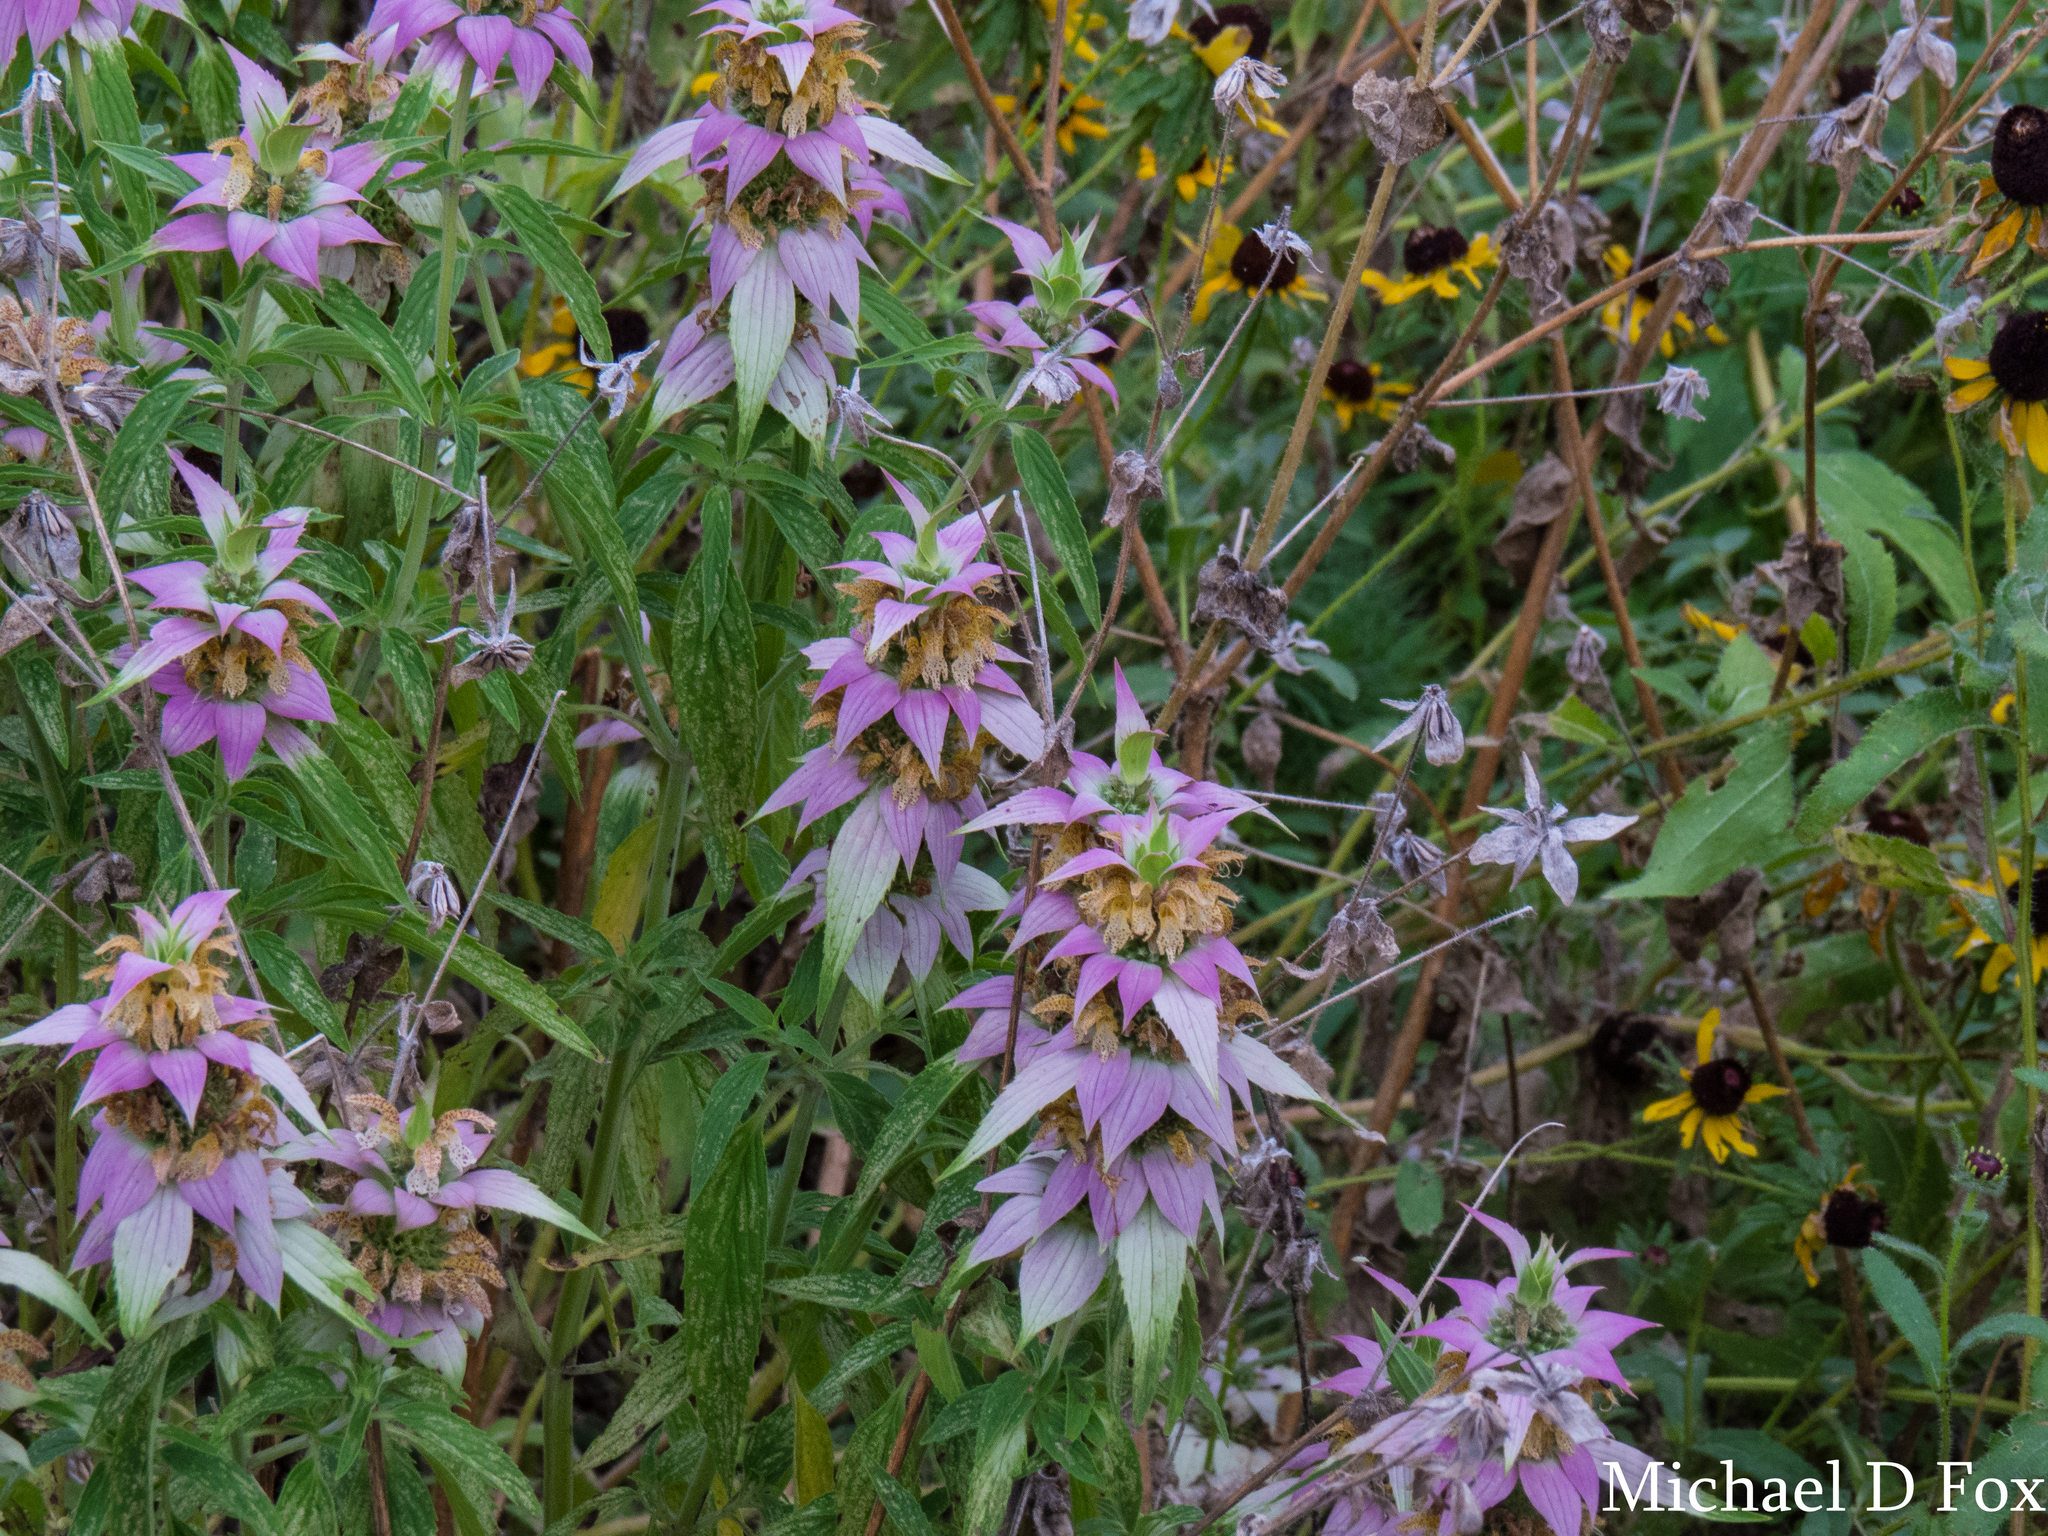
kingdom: Plantae
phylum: Tracheophyta
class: Magnoliopsida
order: Lamiales
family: Lamiaceae
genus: Monarda
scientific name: Monarda citriodora
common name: Lemon beebalm
